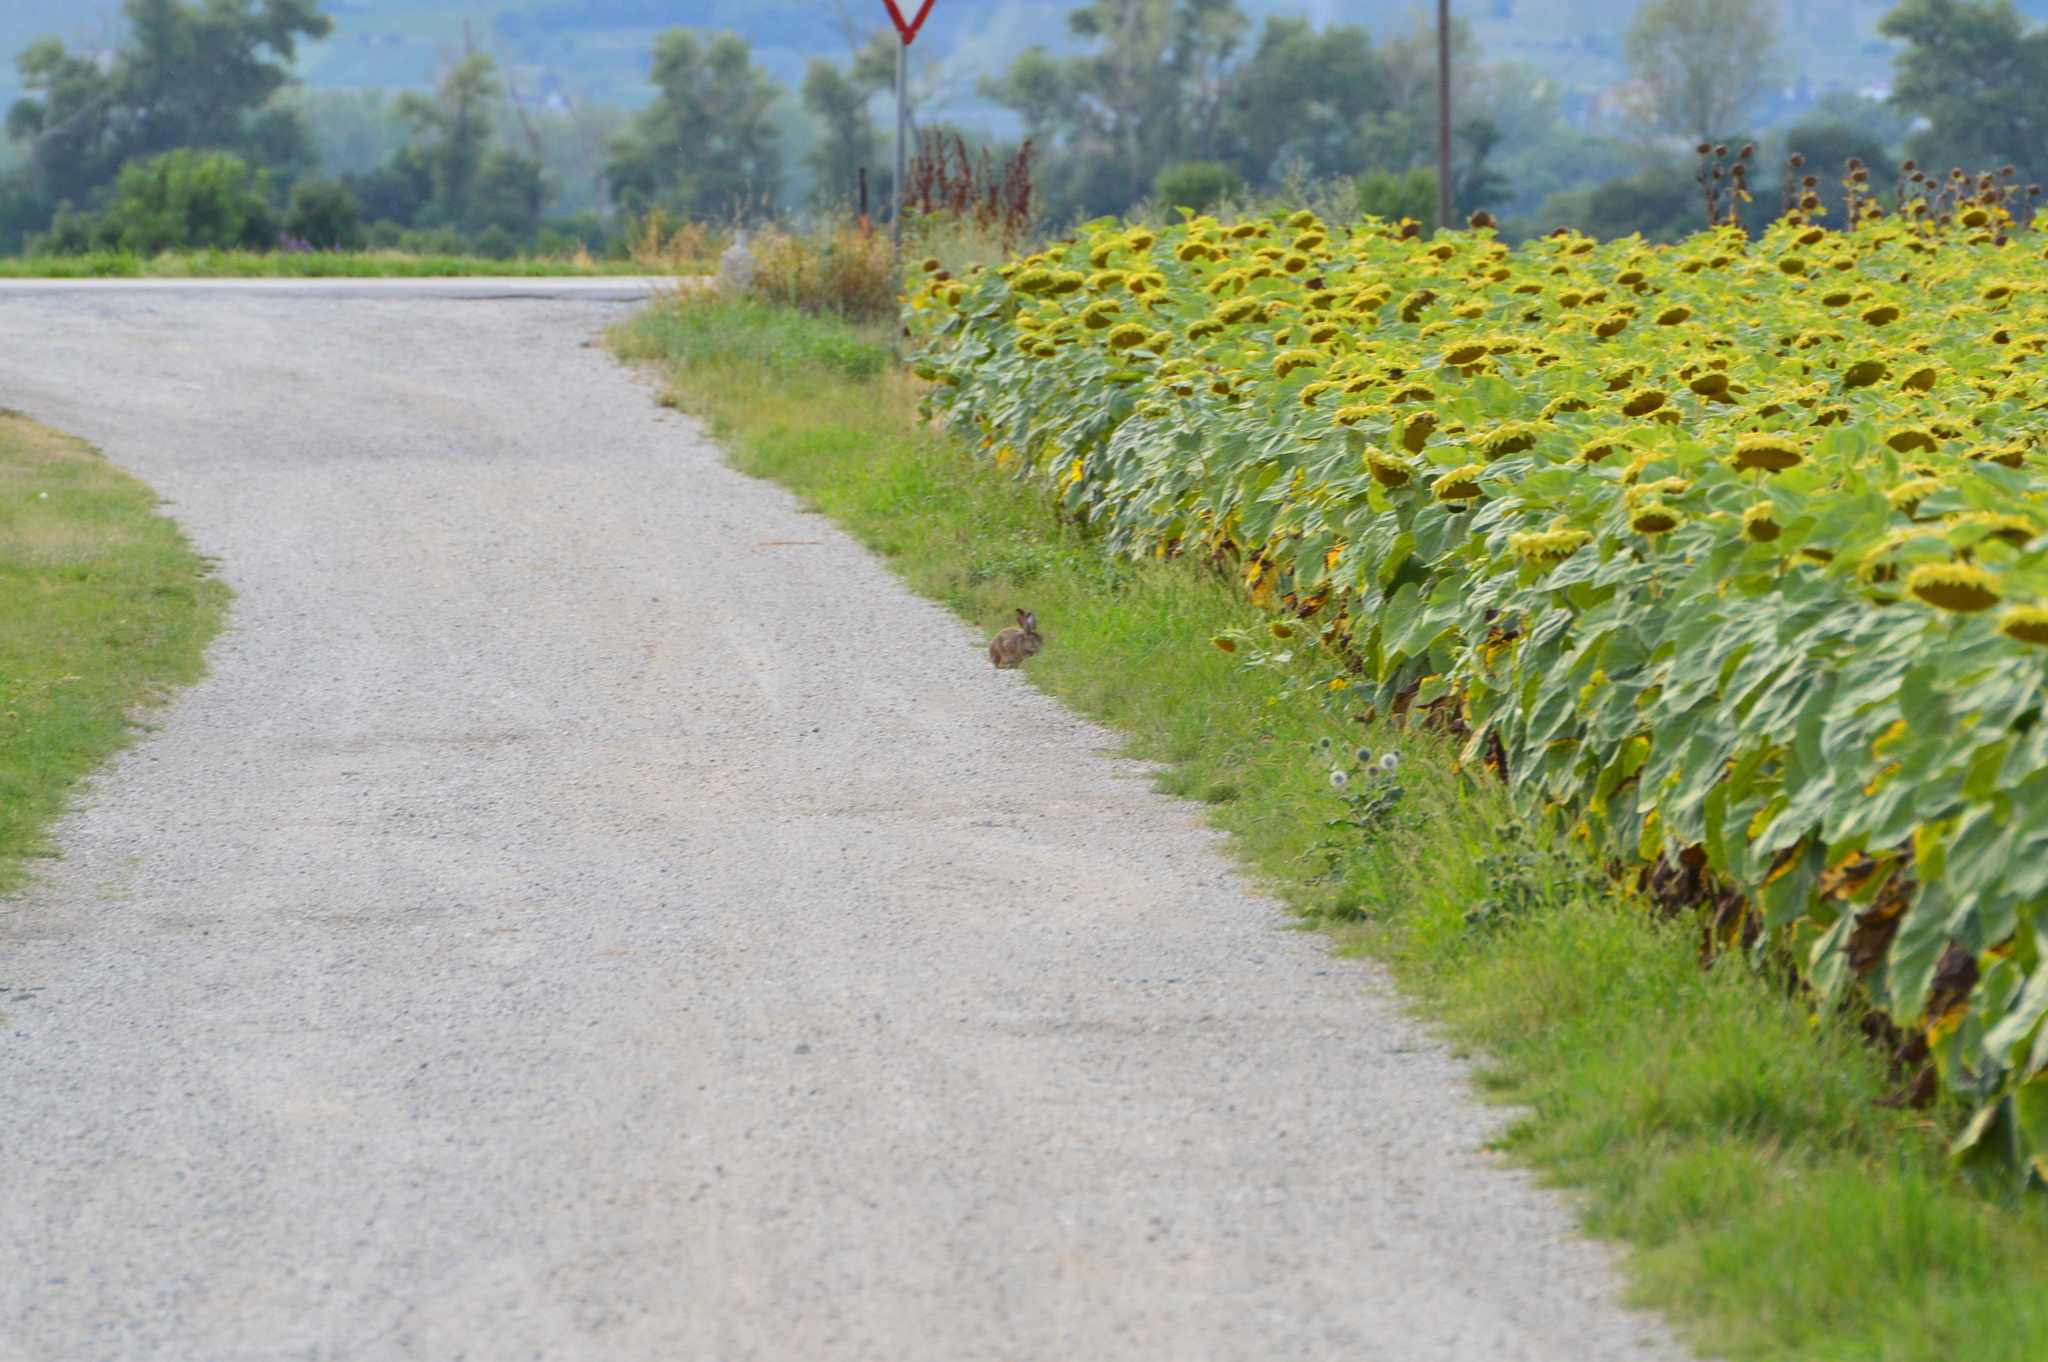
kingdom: Animalia
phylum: Chordata
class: Mammalia
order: Lagomorpha
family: Leporidae
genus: Lepus
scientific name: Lepus europaeus
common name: European hare
